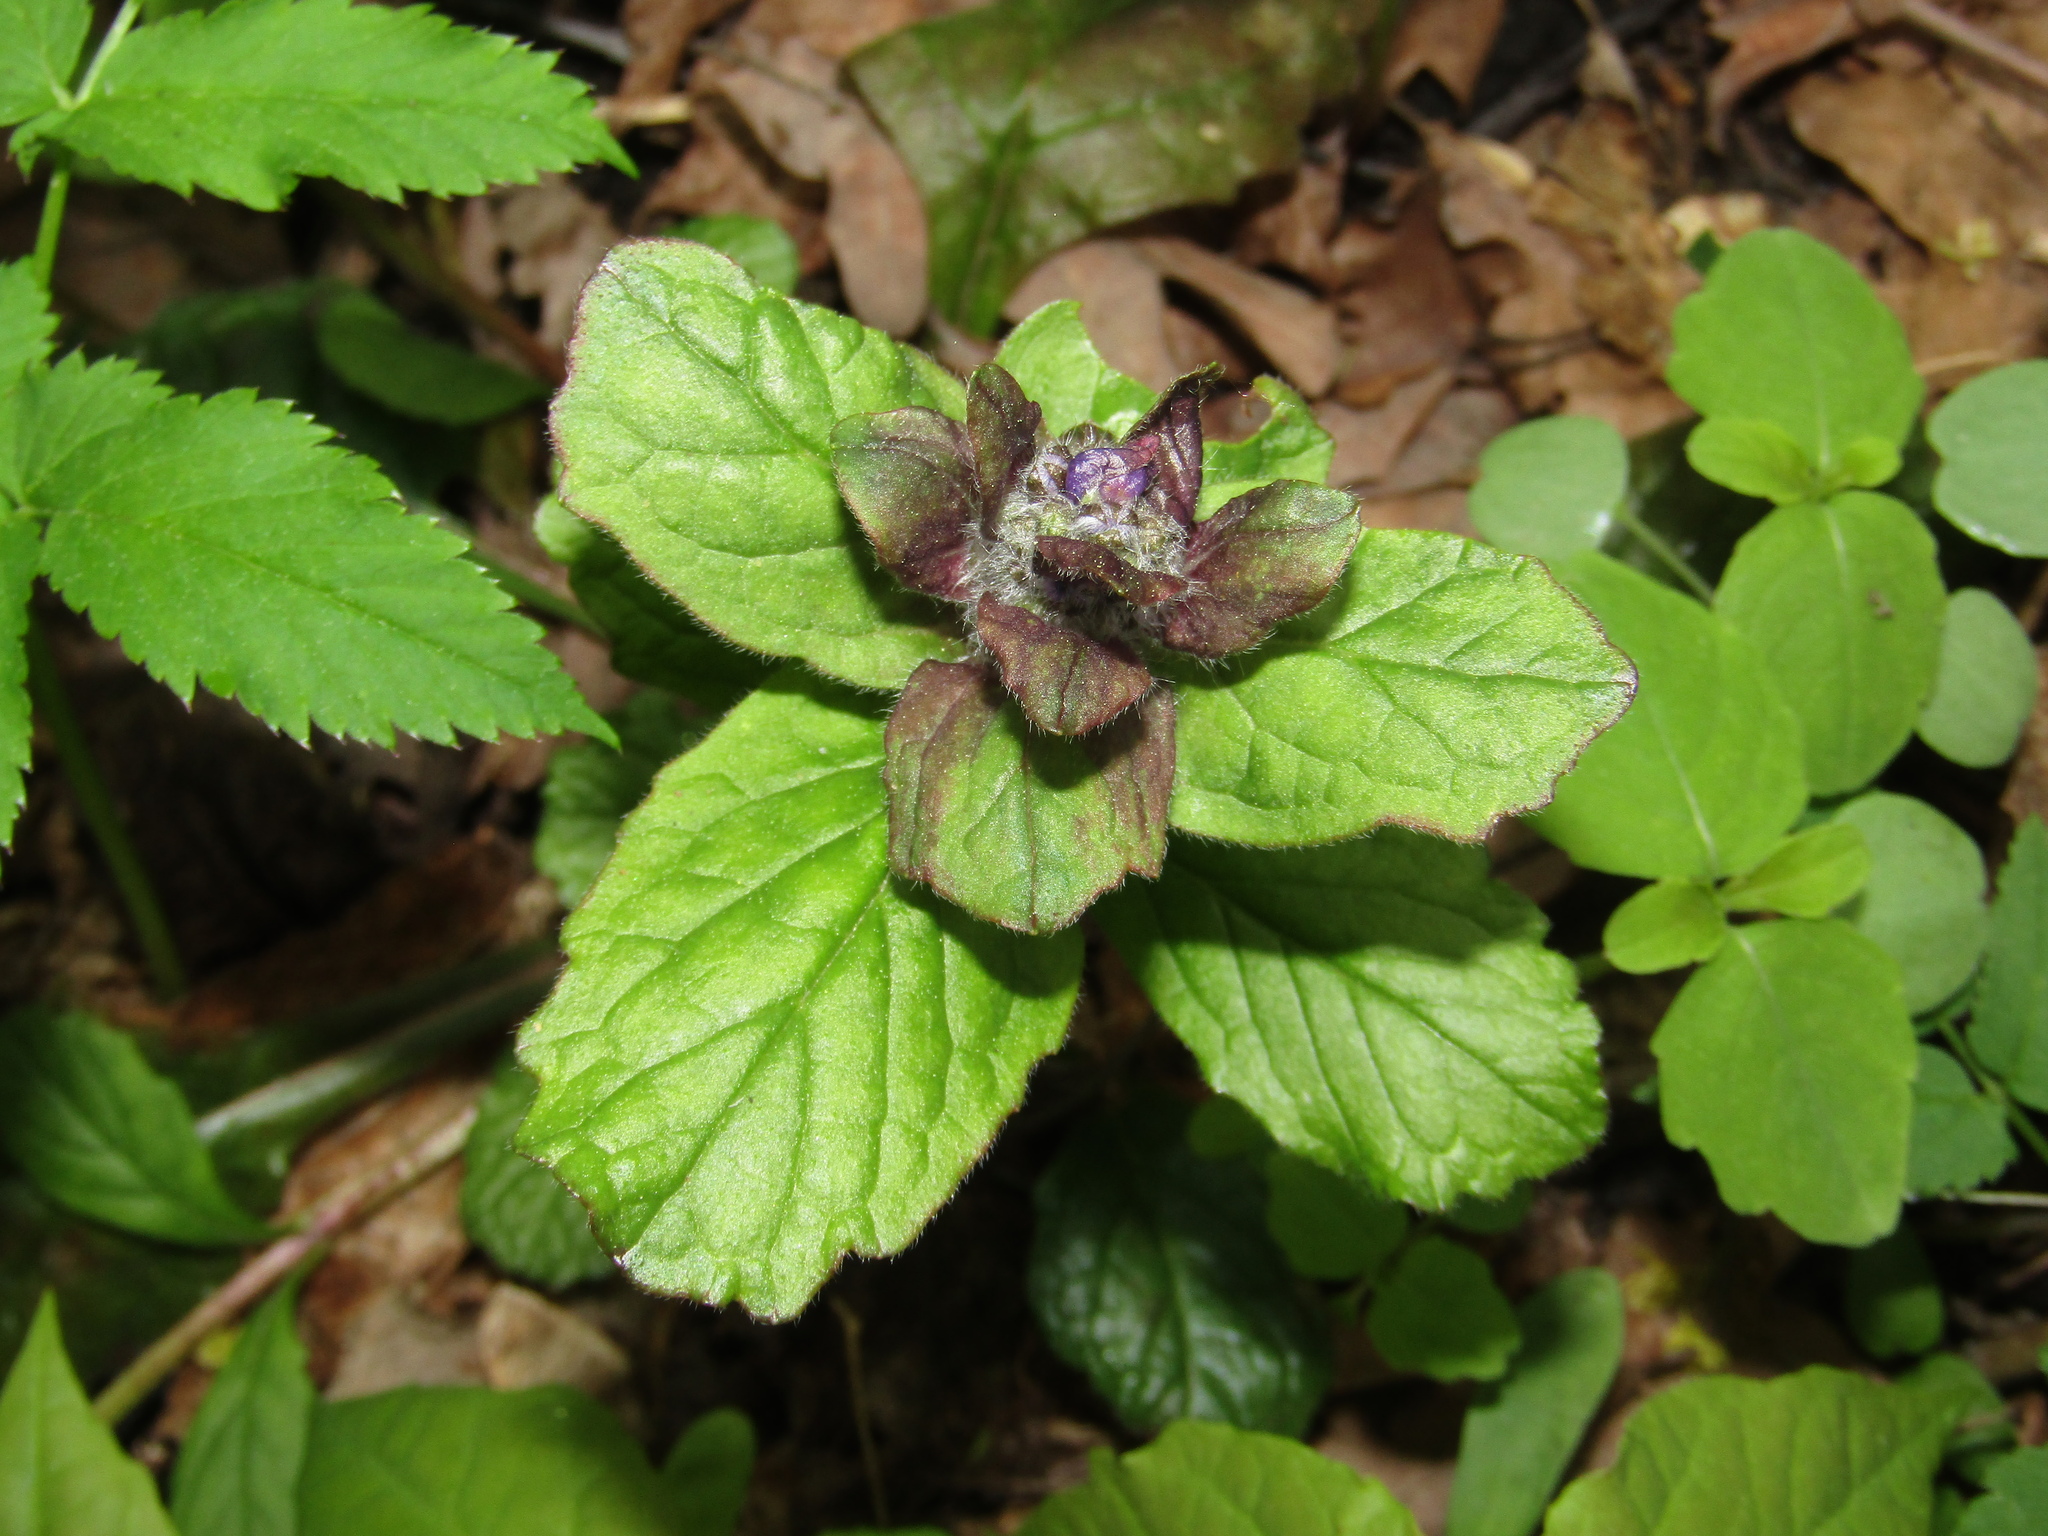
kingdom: Plantae
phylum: Tracheophyta
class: Magnoliopsida
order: Lamiales
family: Lamiaceae
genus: Ajuga
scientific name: Ajuga reptans
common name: Bugle
